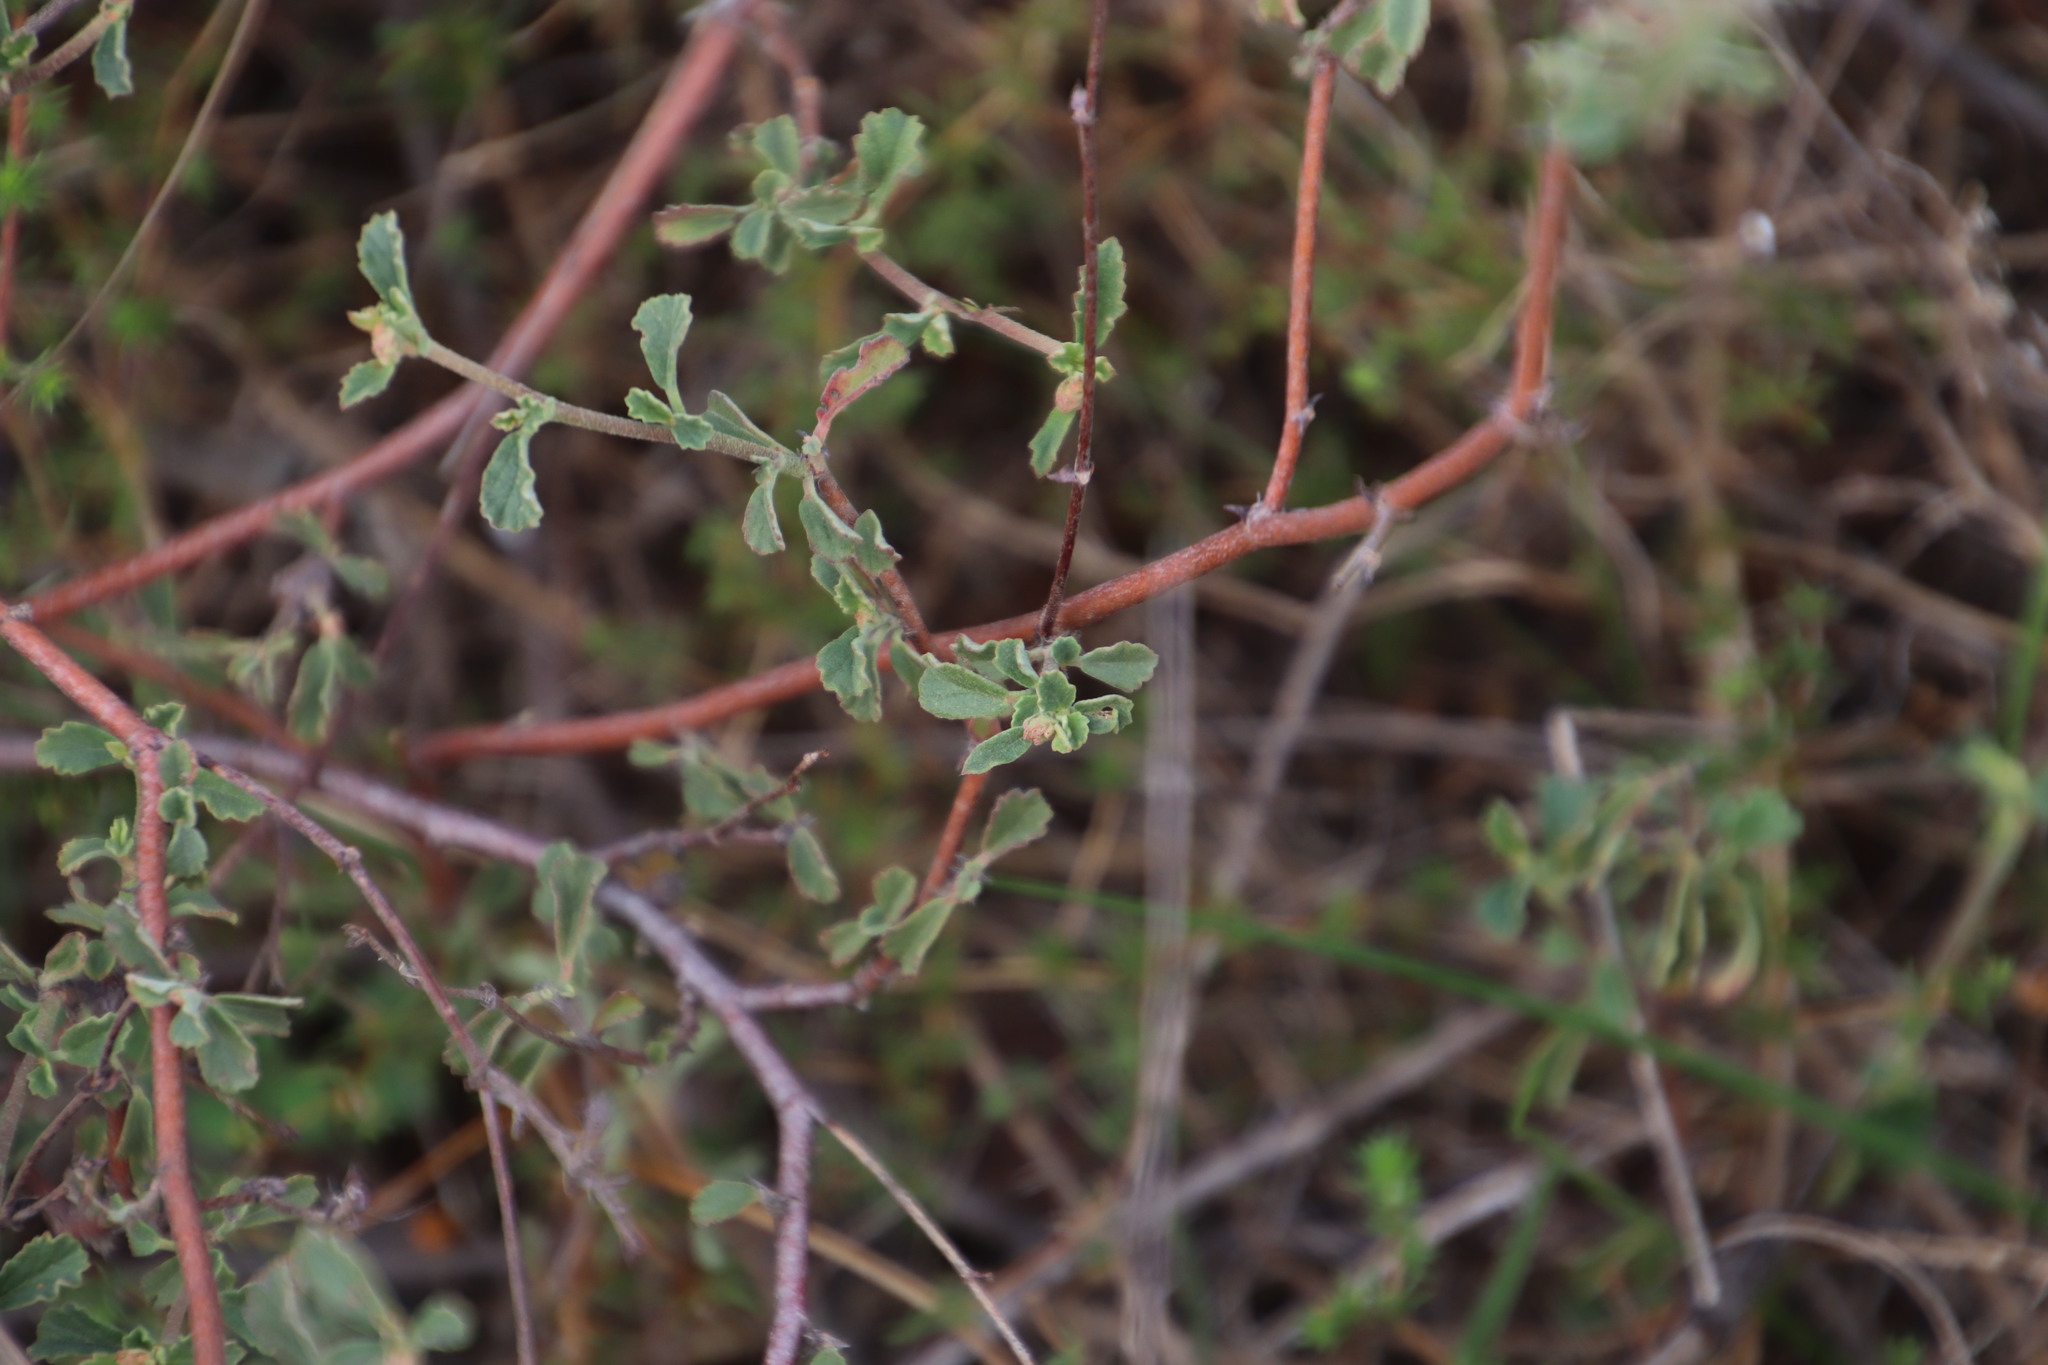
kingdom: Plantae
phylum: Tracheophyta
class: Magnoliopsida
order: Malvales
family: Malvaceae
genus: Hermannia
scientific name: Hermannia multiflora
